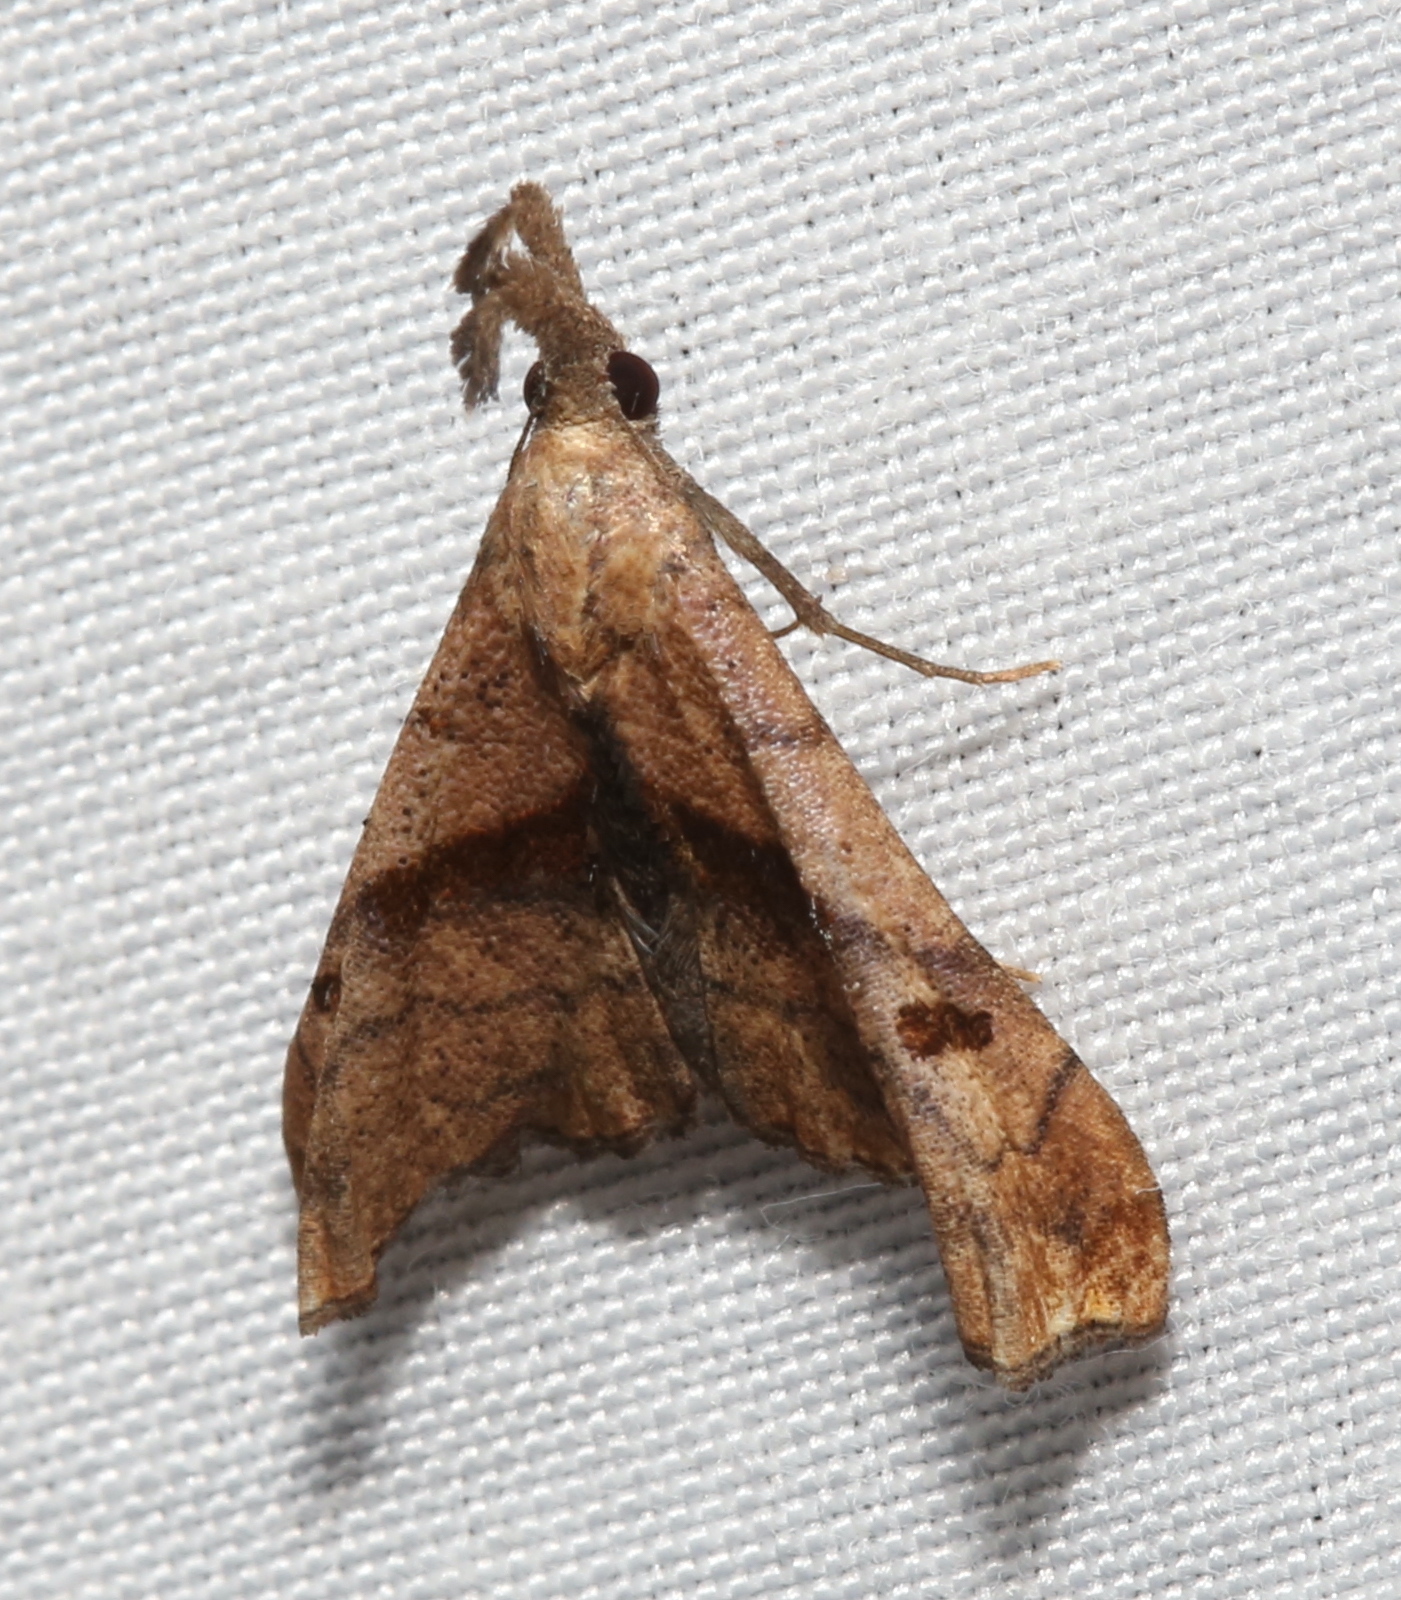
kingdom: Animalia
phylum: Arthropoda
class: Insecta
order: Lepidoptera
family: Erebidae
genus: Palthis
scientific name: Palthis angulalis
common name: Dark-spotted palthis moth
